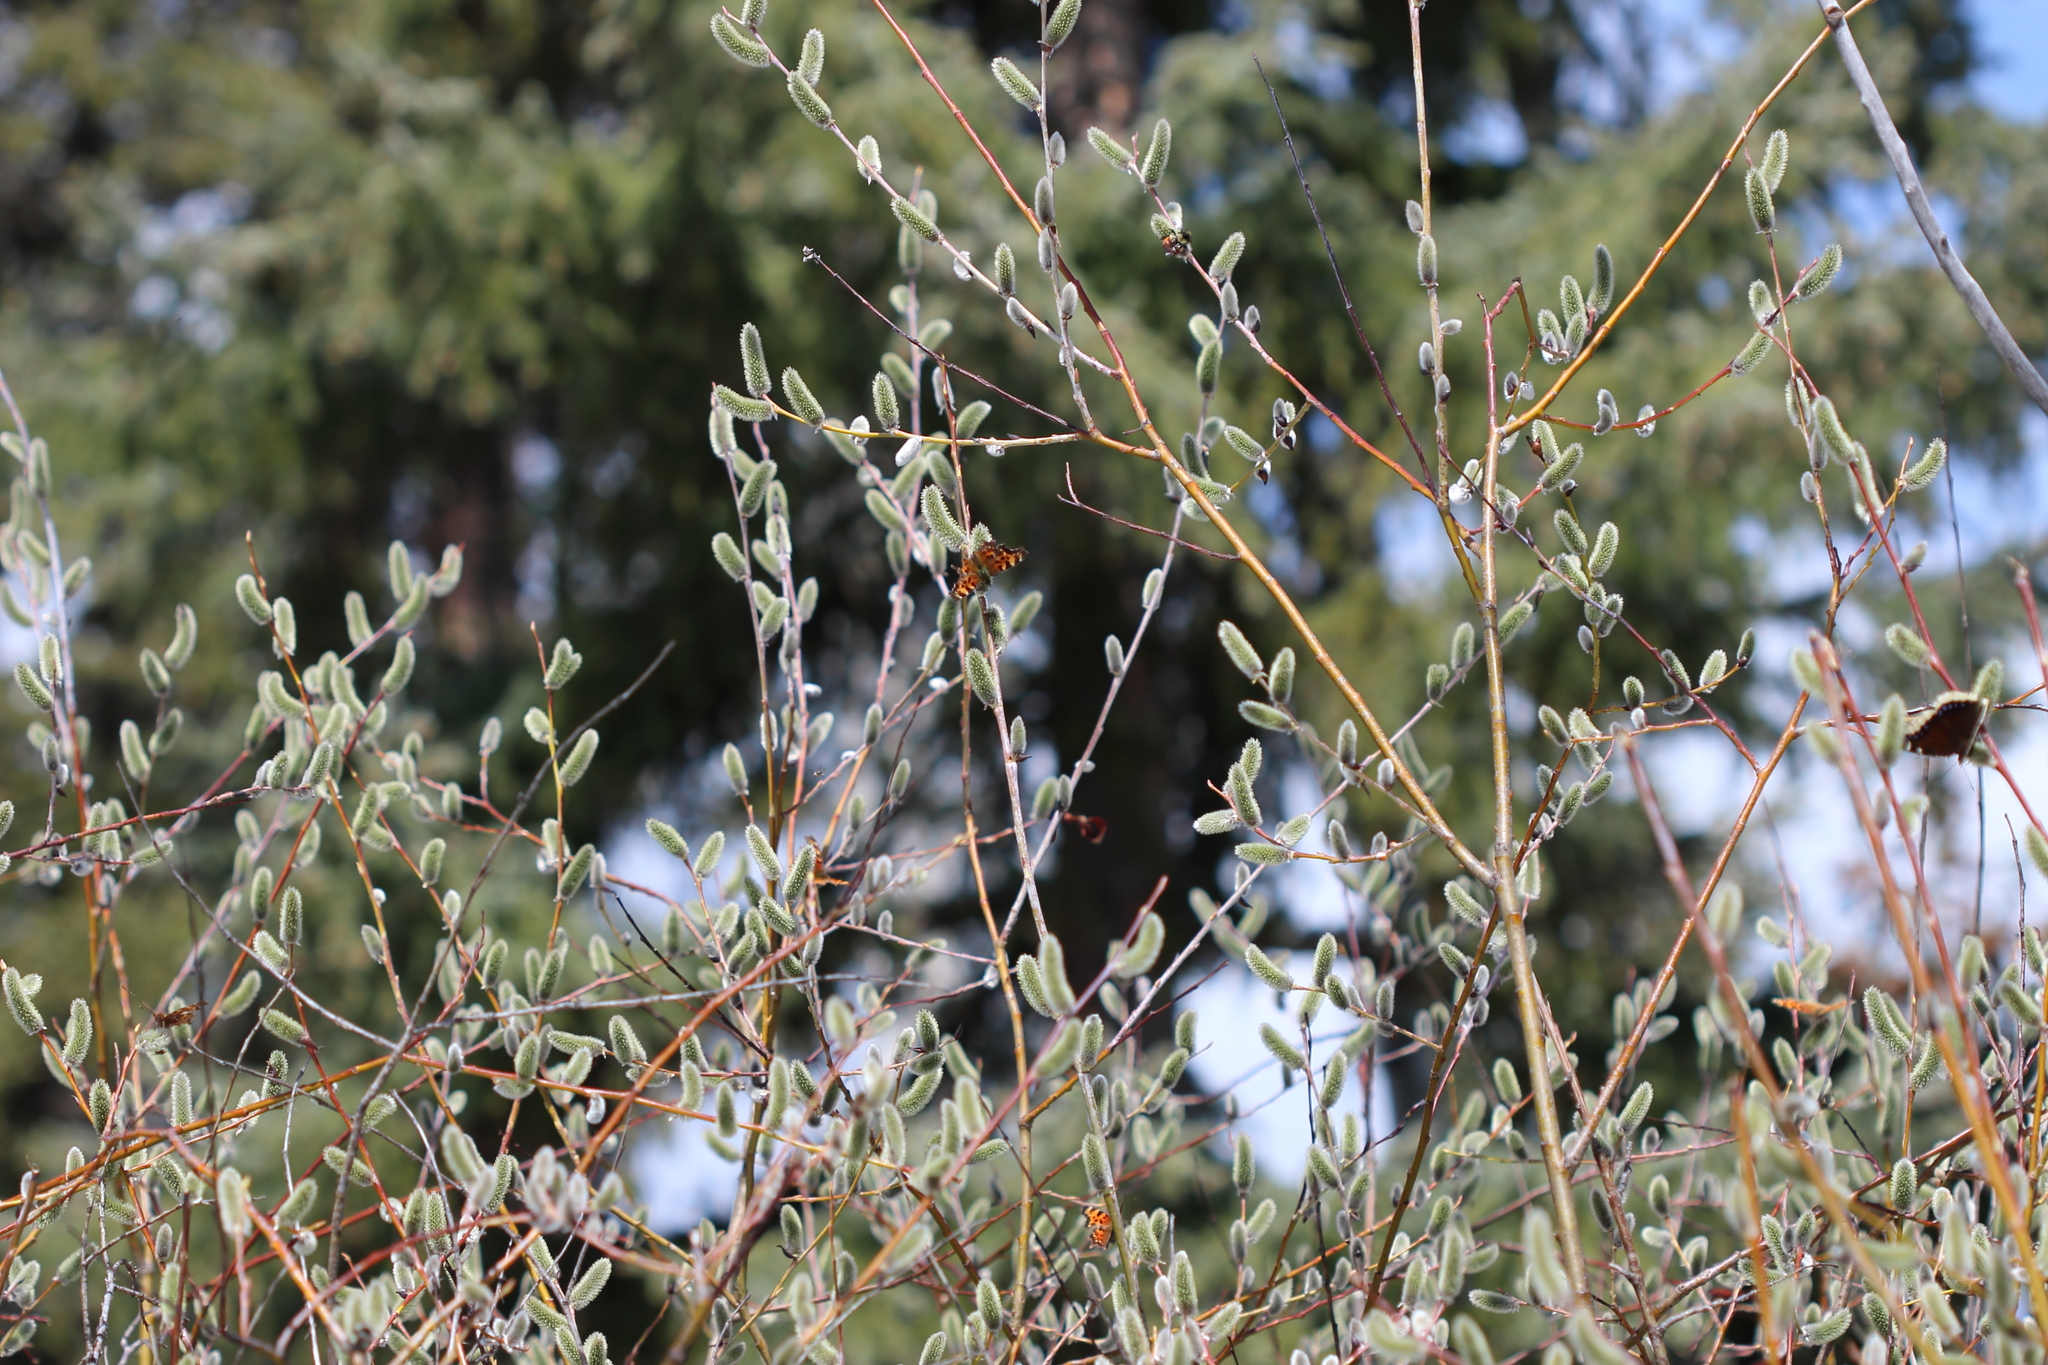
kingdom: Animalia
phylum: Arthropoda
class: Insecta
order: Lepidoptera
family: Nymphalidae
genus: Polygonia
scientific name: Polygonia faunus
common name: Green comma
